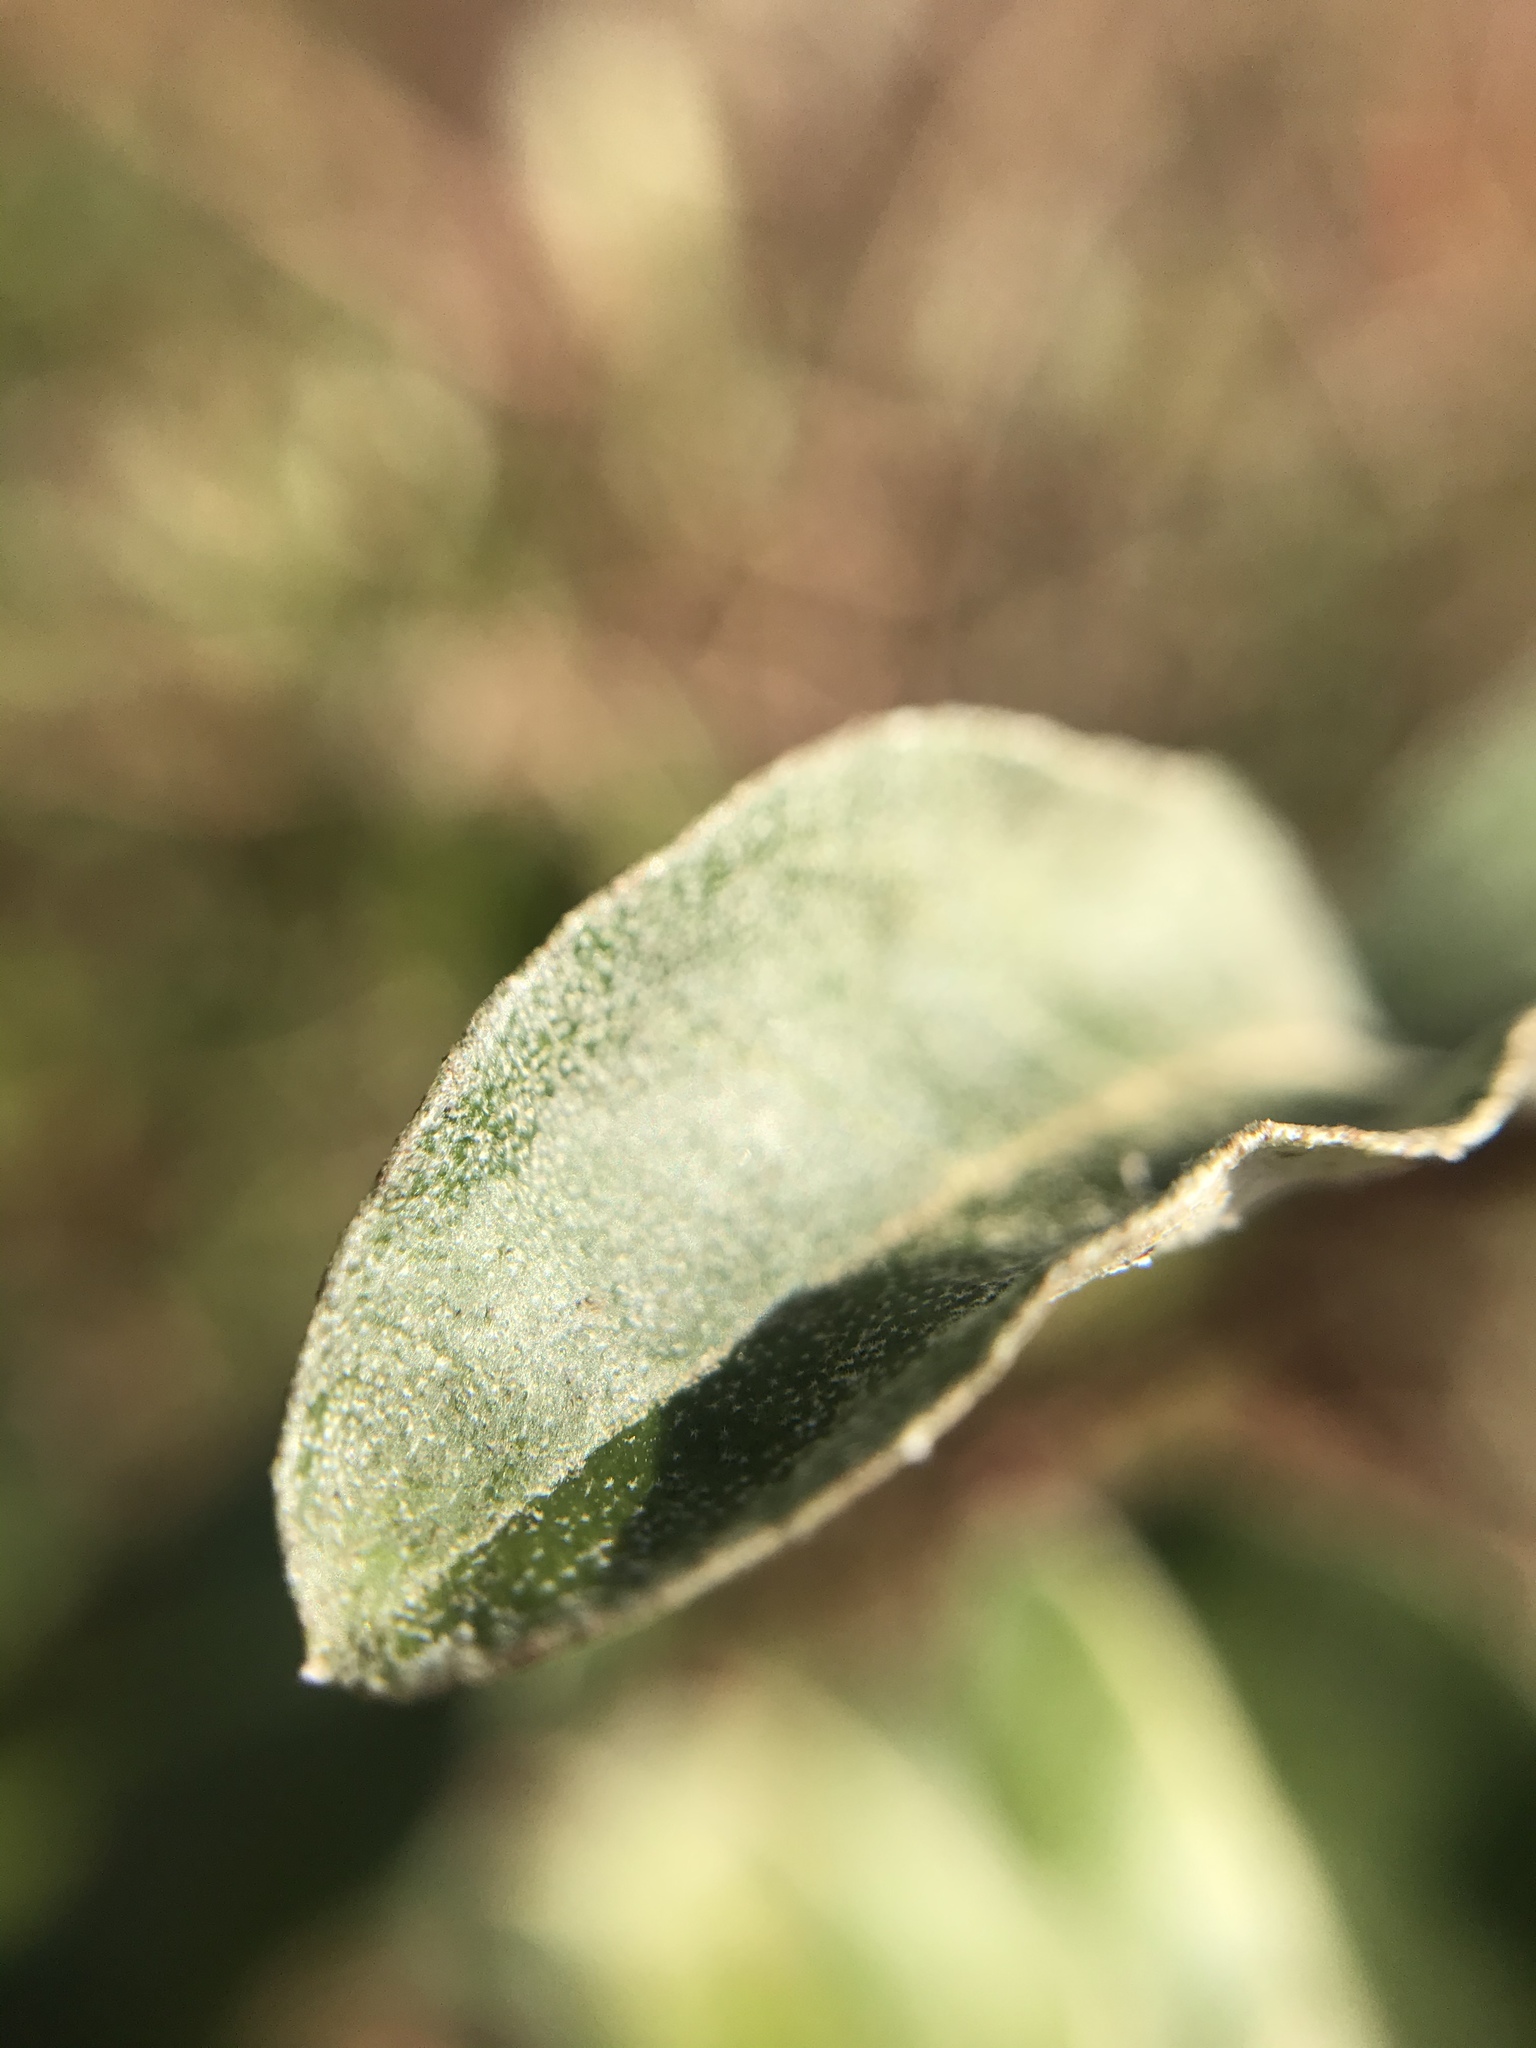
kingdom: Plantae
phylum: Tracheophyta
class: Magnoliopsida
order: Rosales
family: Elaeagnaceae
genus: Elaeagnus
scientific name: Elaeagnus umbellata
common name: Autumn olive
